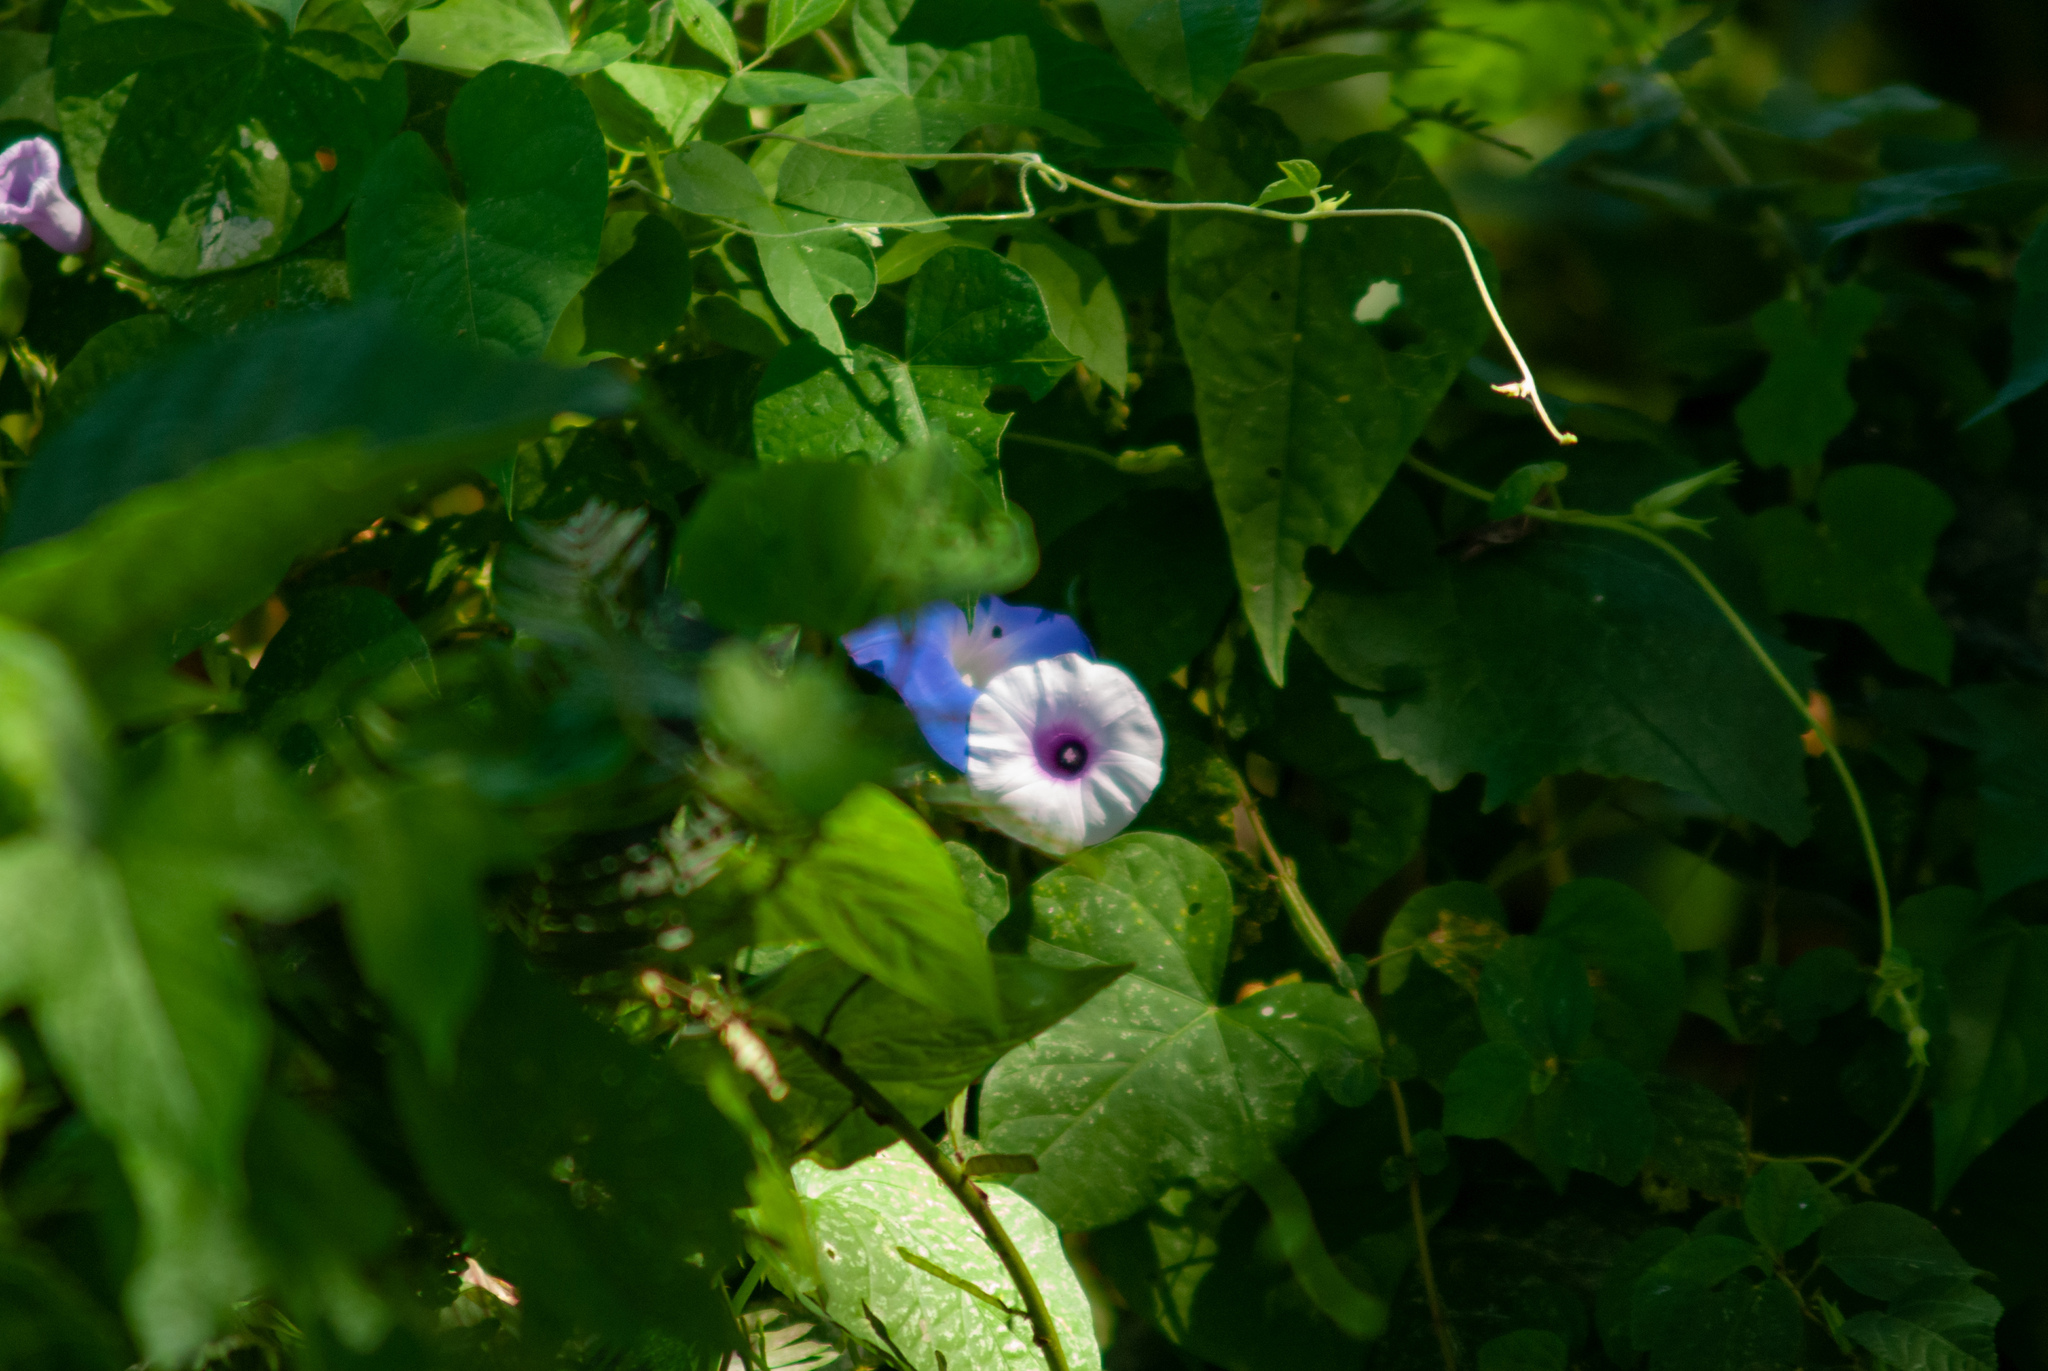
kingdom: Plantae
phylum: Tracheophyta
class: Magnoliopsida
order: Solanales
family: Convolvulaceae
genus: Ipomoea
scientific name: Ipomoea batatas
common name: Sweet-potato
